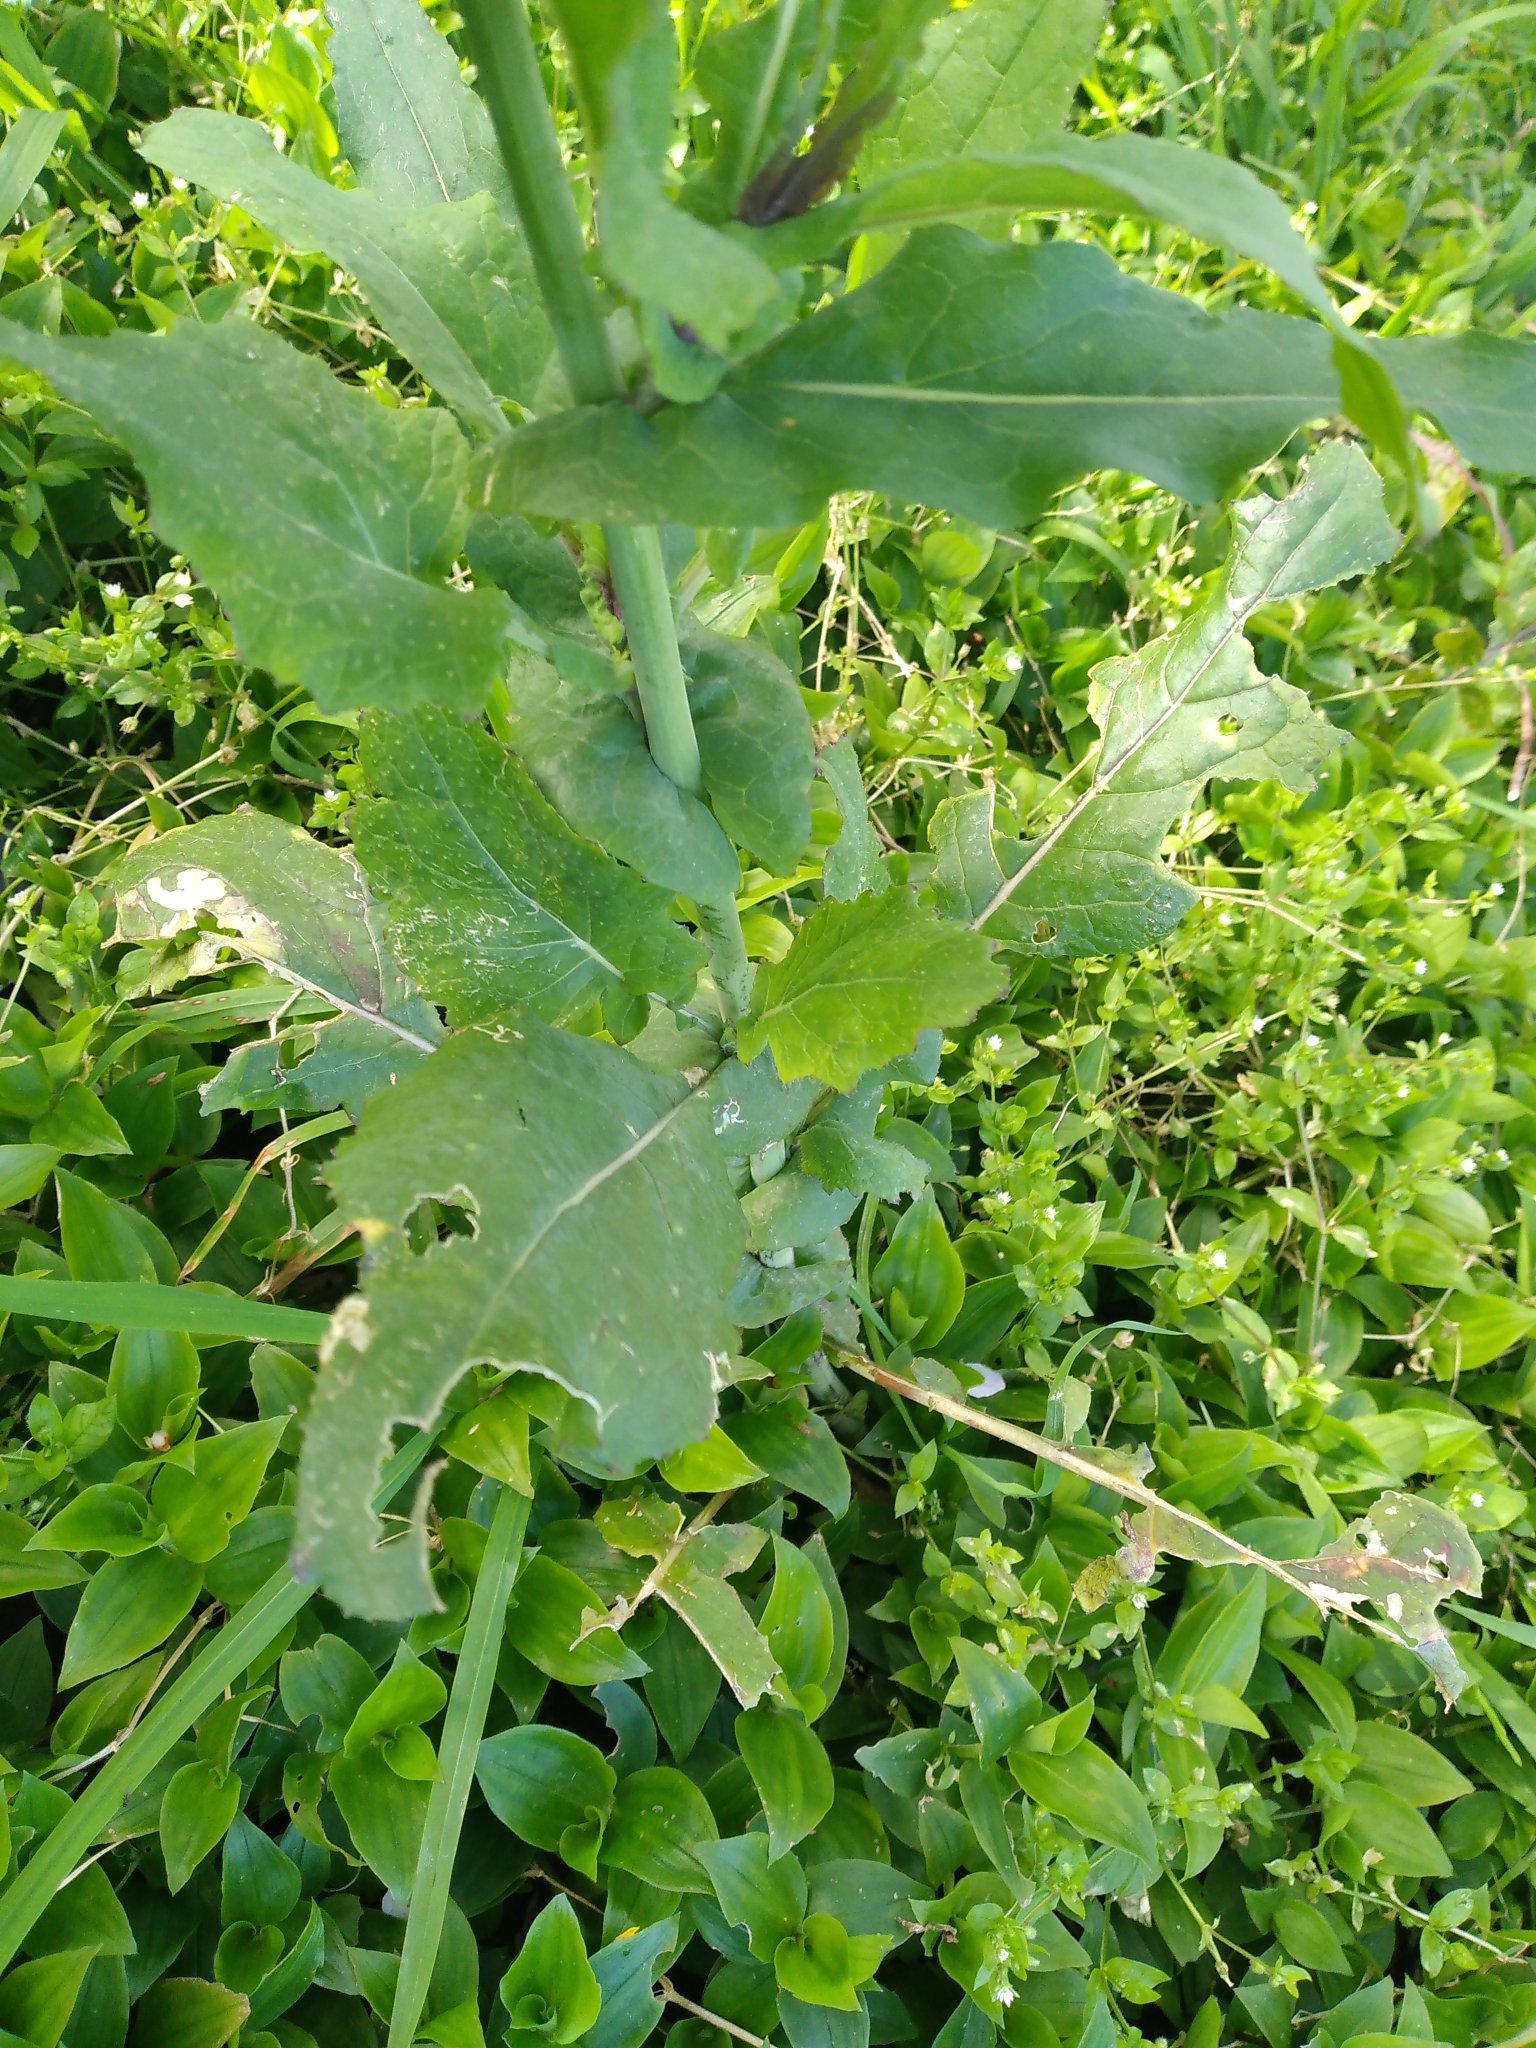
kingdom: Plantae
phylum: Tracheophyta
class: Magnoliopsida
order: Brassicales
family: Brassicaceae
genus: Brassica
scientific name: Brassica rapa
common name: Field mustard
